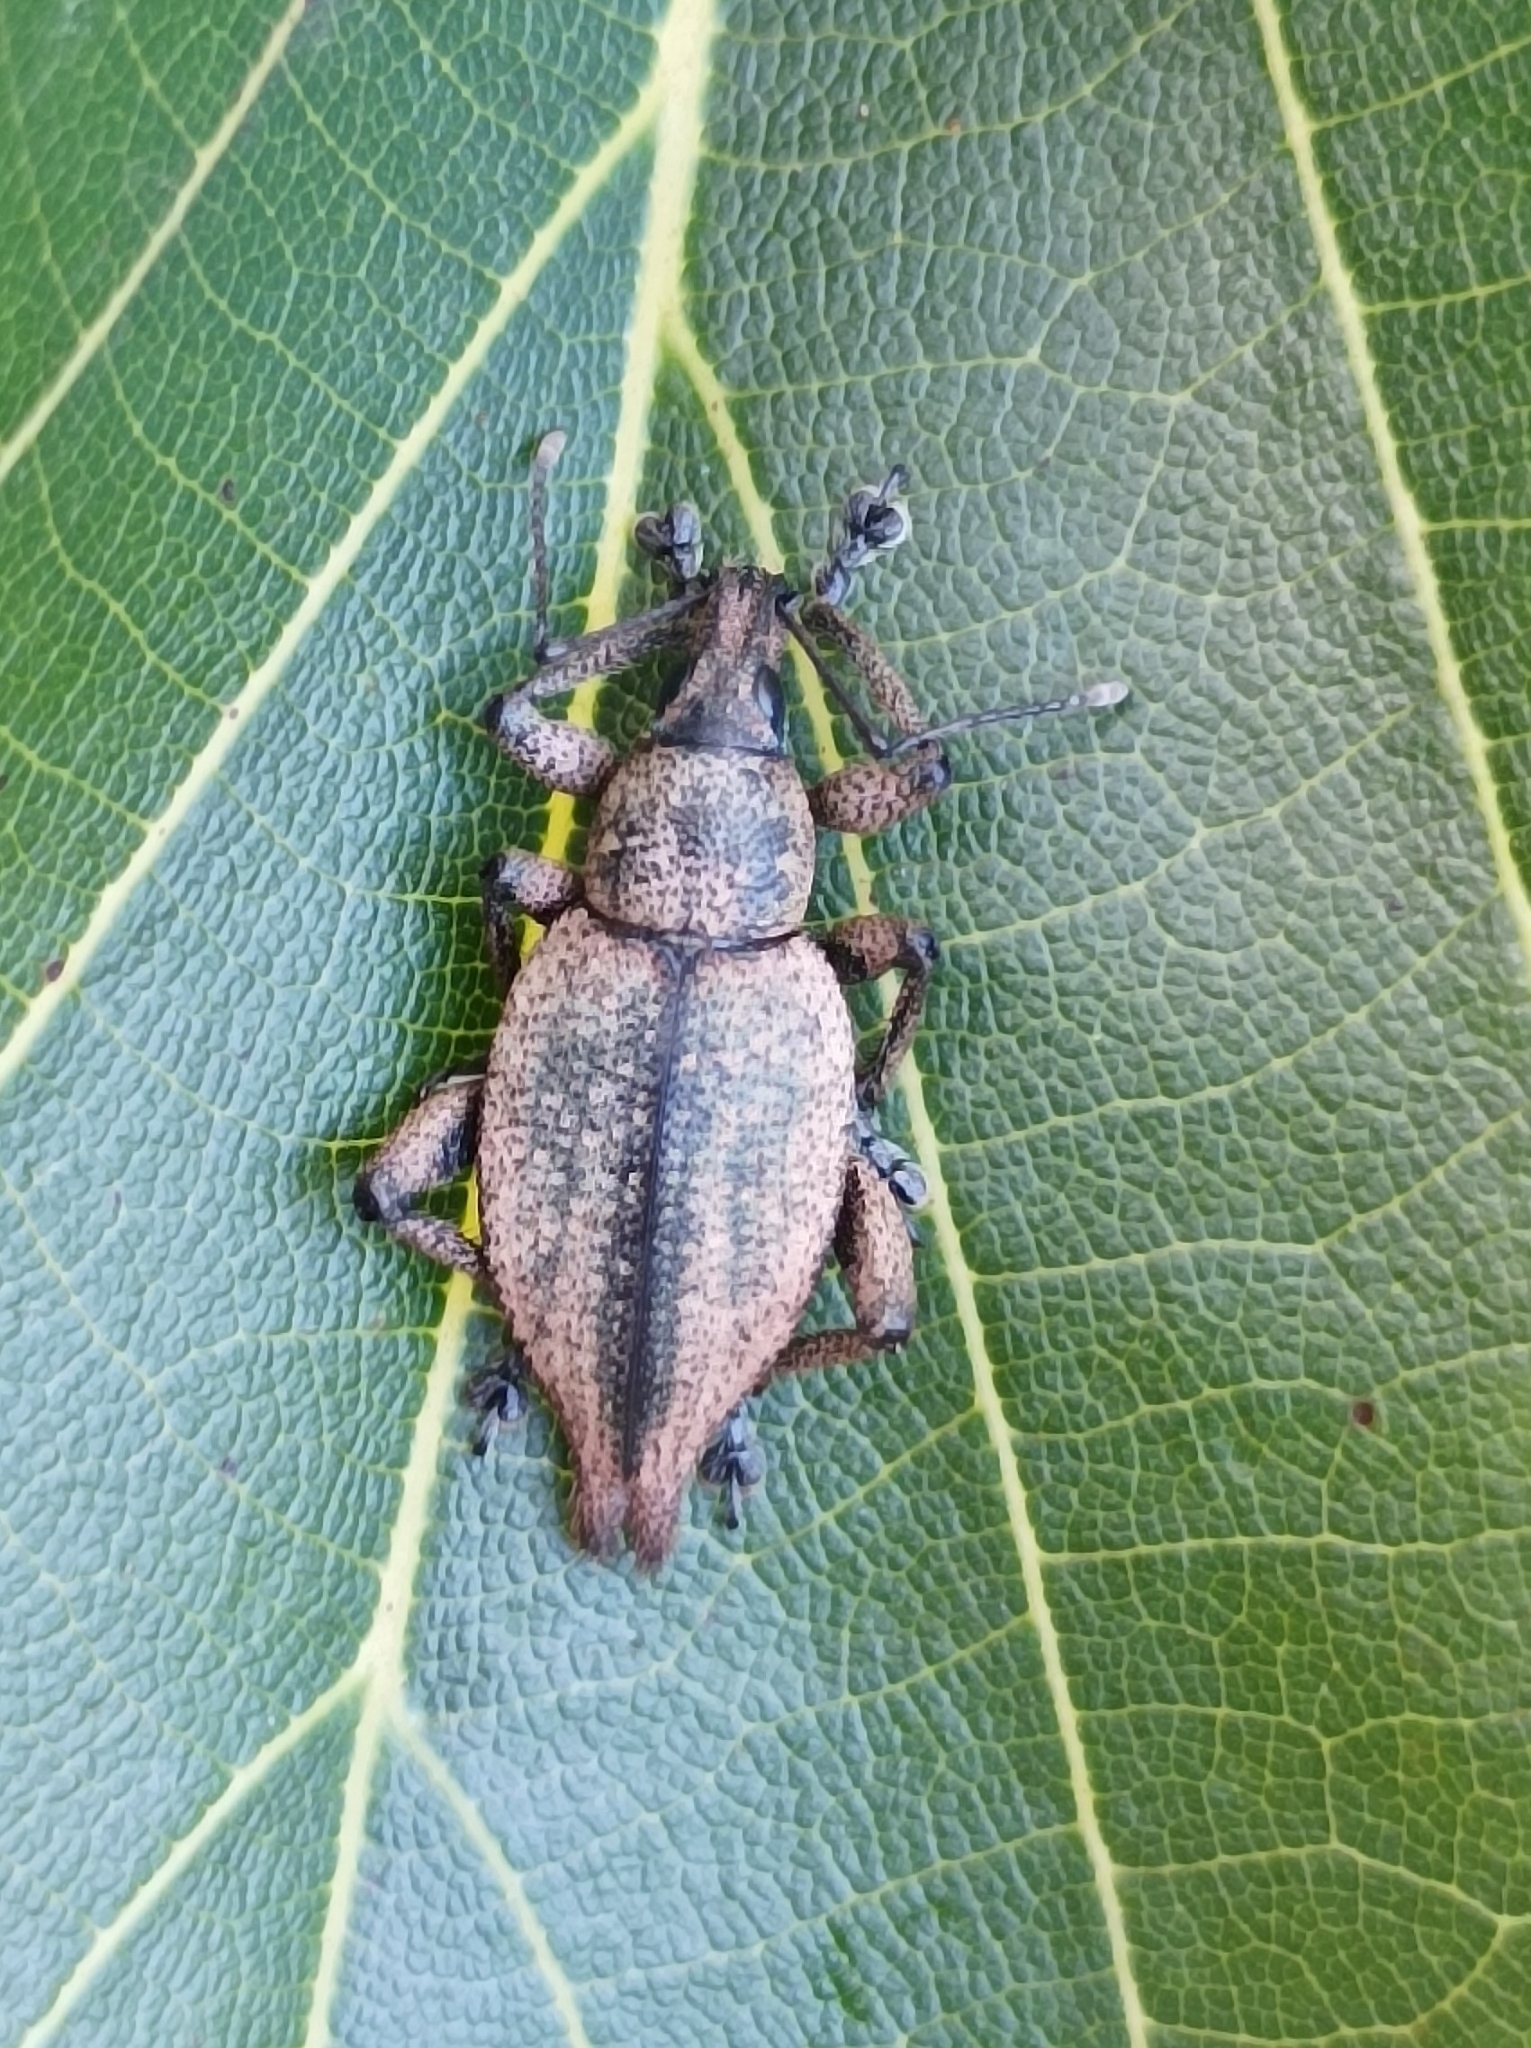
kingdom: Animalia
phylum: Arthropoda
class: Insecta
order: Coleoptera
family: Curculionidae
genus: Elytrurus
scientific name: Elytrurus serrulatus
